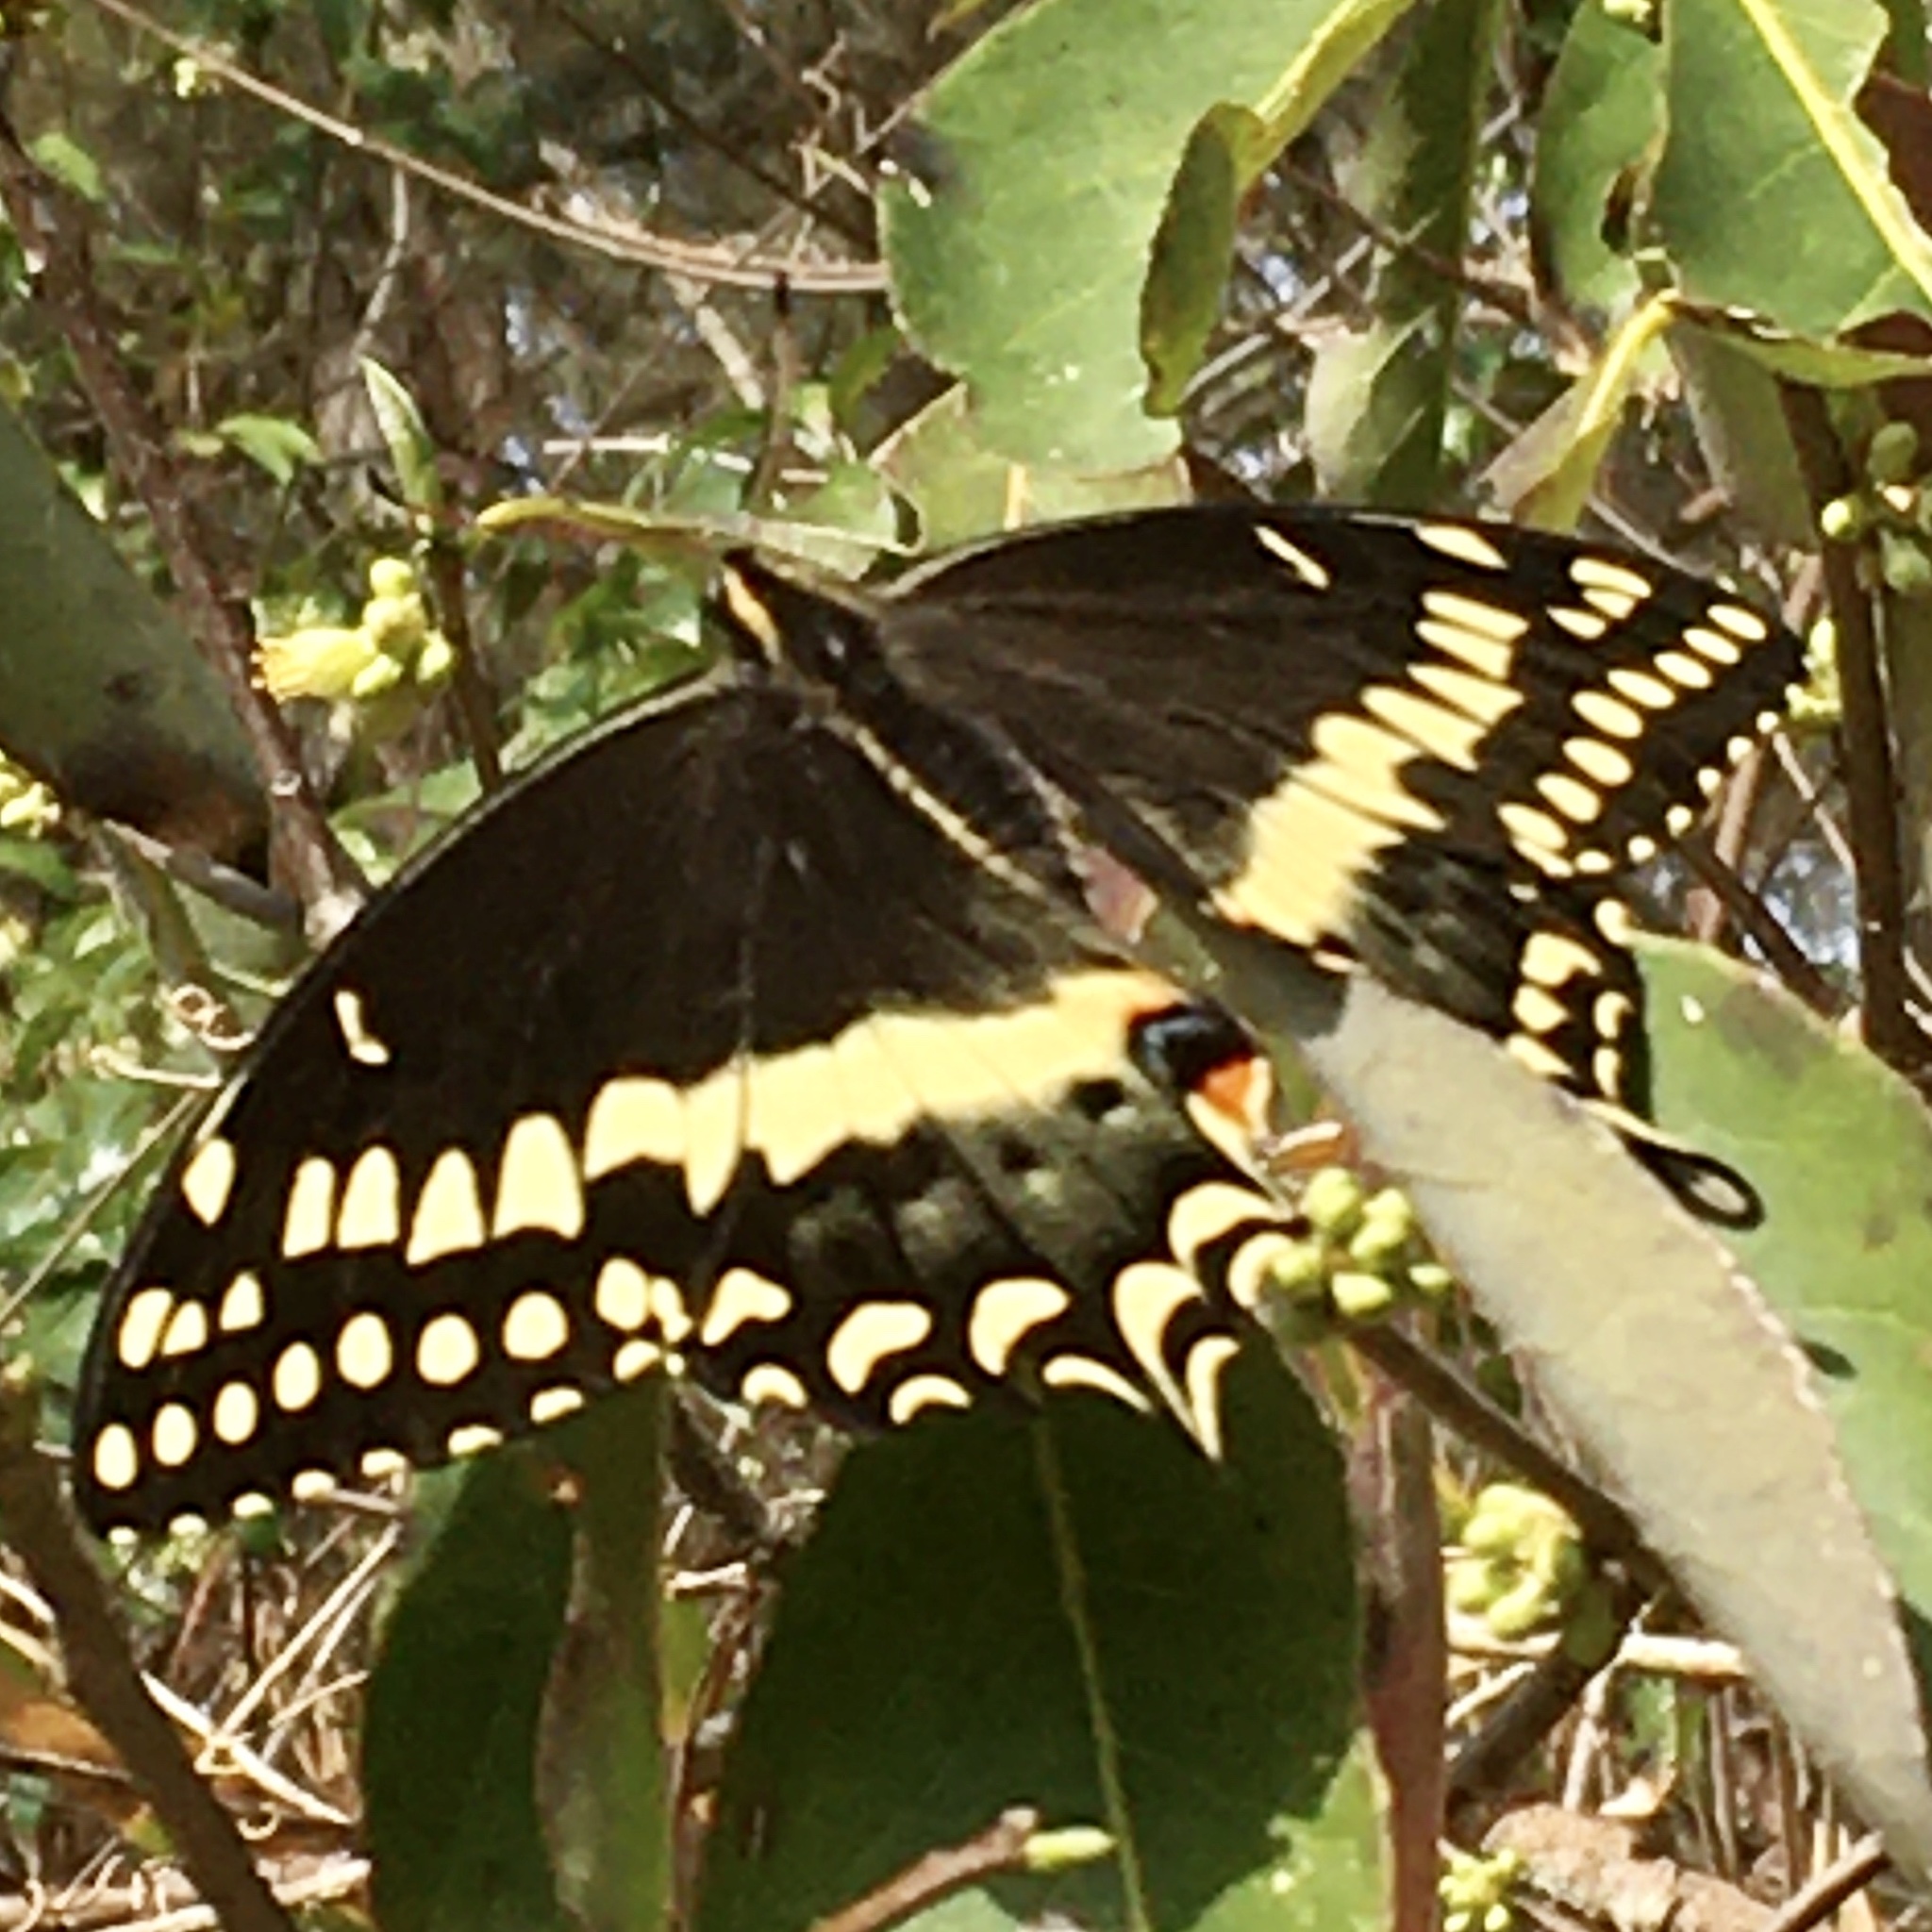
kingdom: Animalia
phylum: Arthropoda
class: Insecta
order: Lepidoptera
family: Papilionidae
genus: Papilio
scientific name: Papilio palamedes
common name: Palamedes swallowtail
